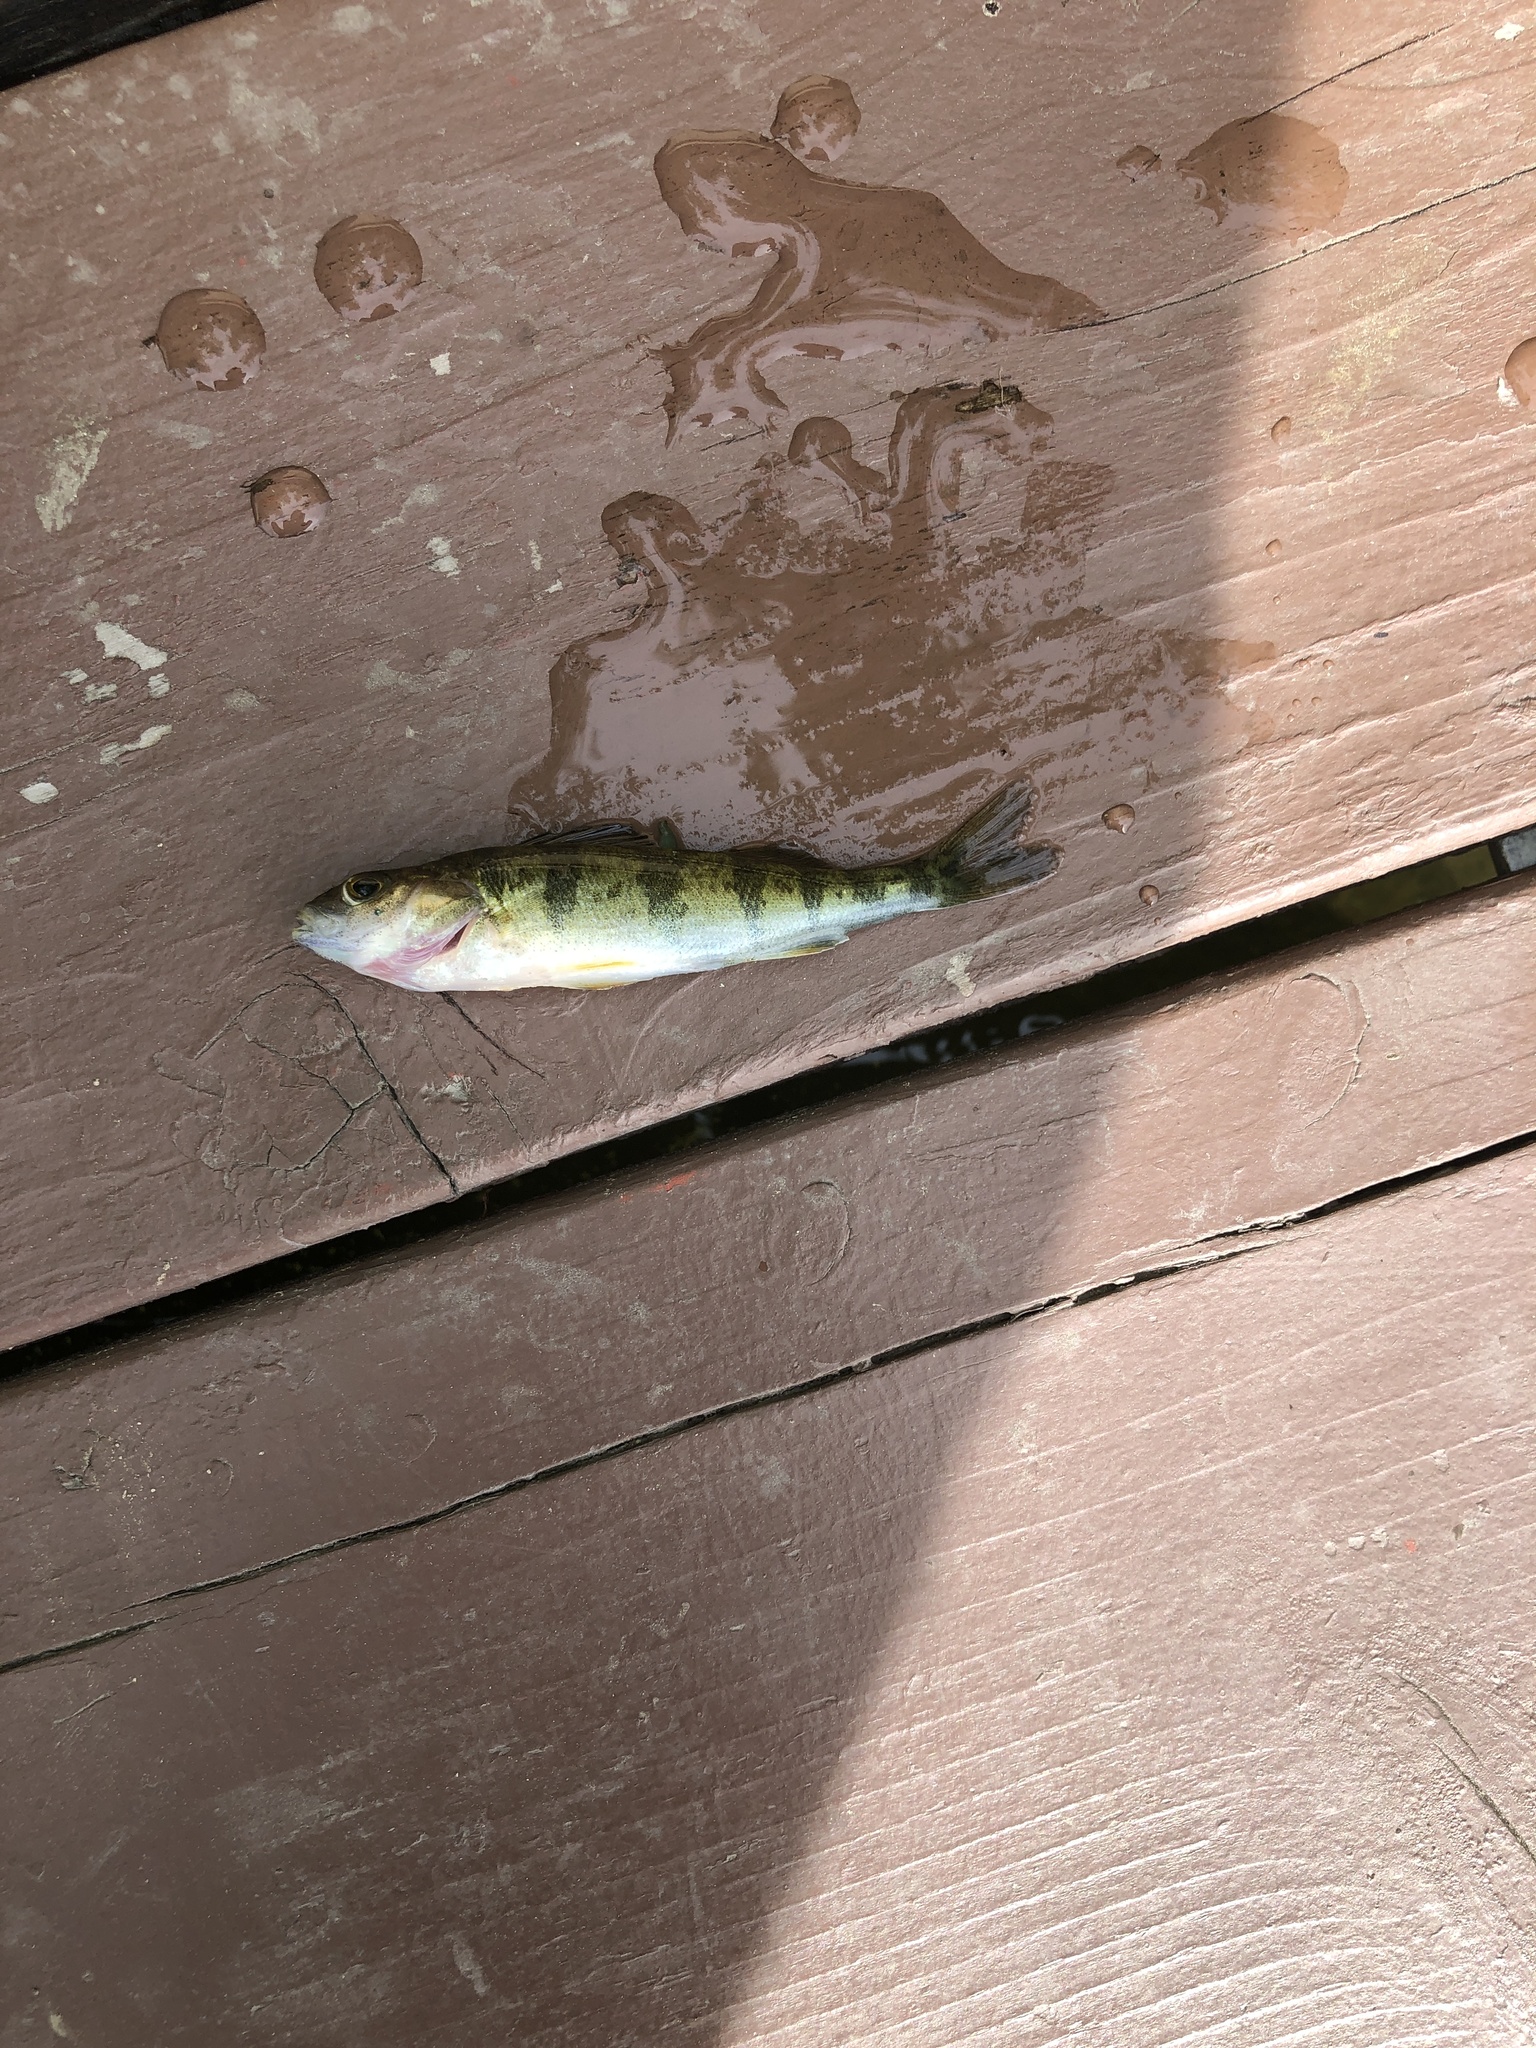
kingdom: Animalia
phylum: Chordata
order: Perciformes
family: Percidae
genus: Perca
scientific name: Perca flavescens
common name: Yellow perch
